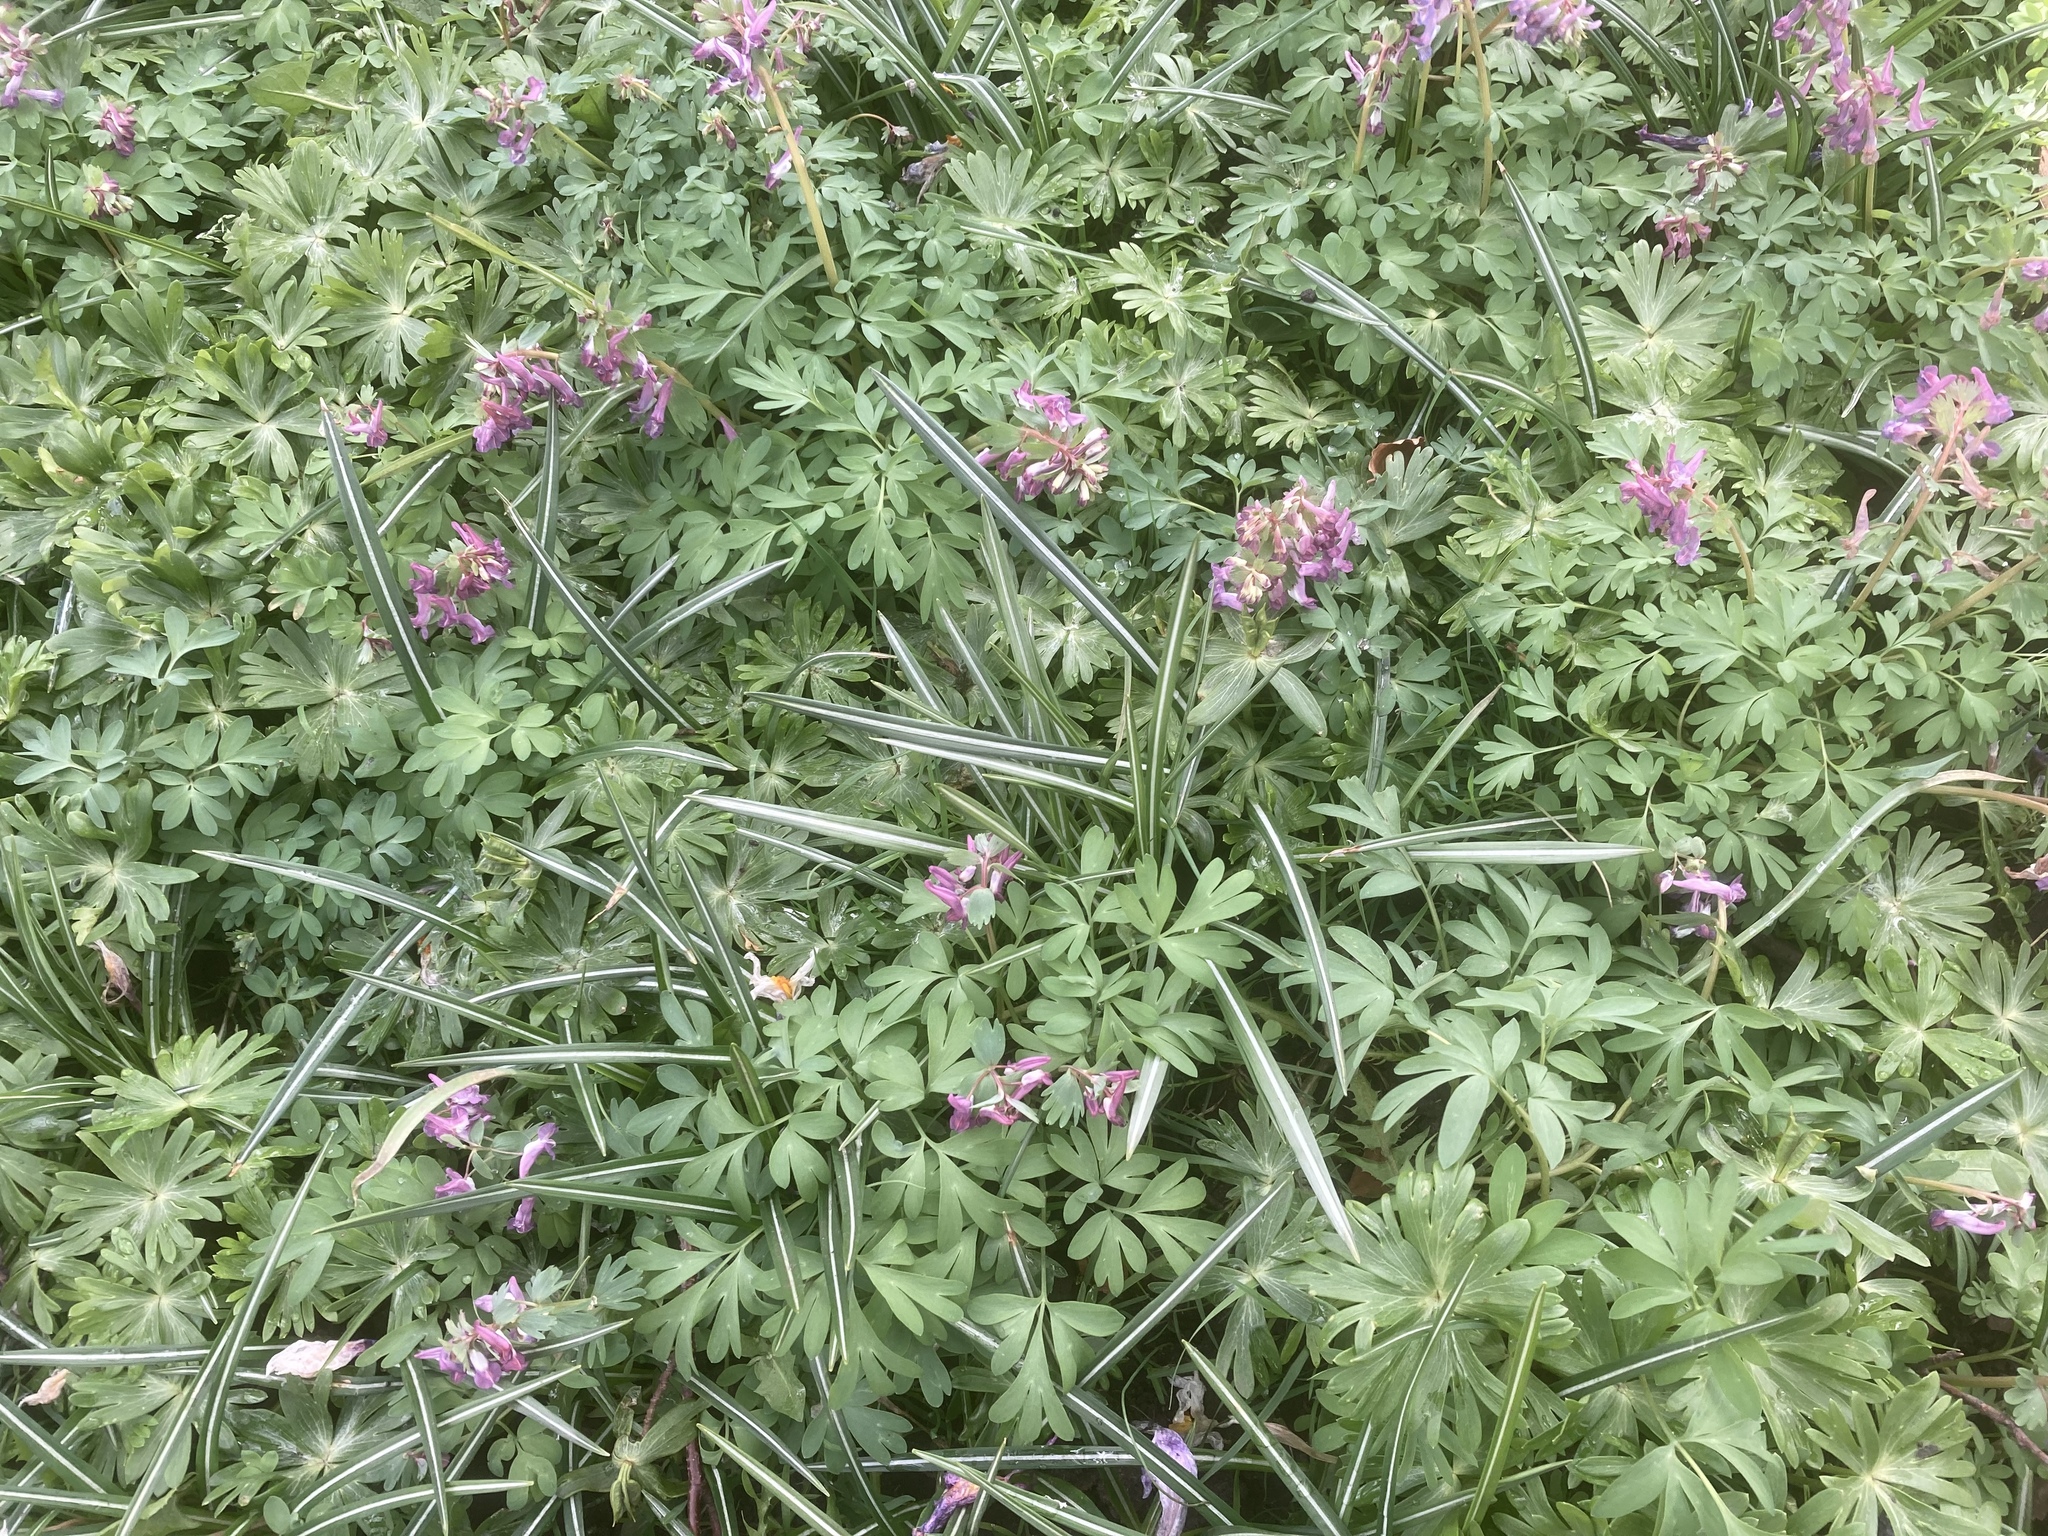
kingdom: Plantae
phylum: Tracheophyta
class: Magnoliopsida
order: Ranunculales
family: Papaveraceae
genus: Corydalis
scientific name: Corydalis solida
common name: Bird-in-a-bush
